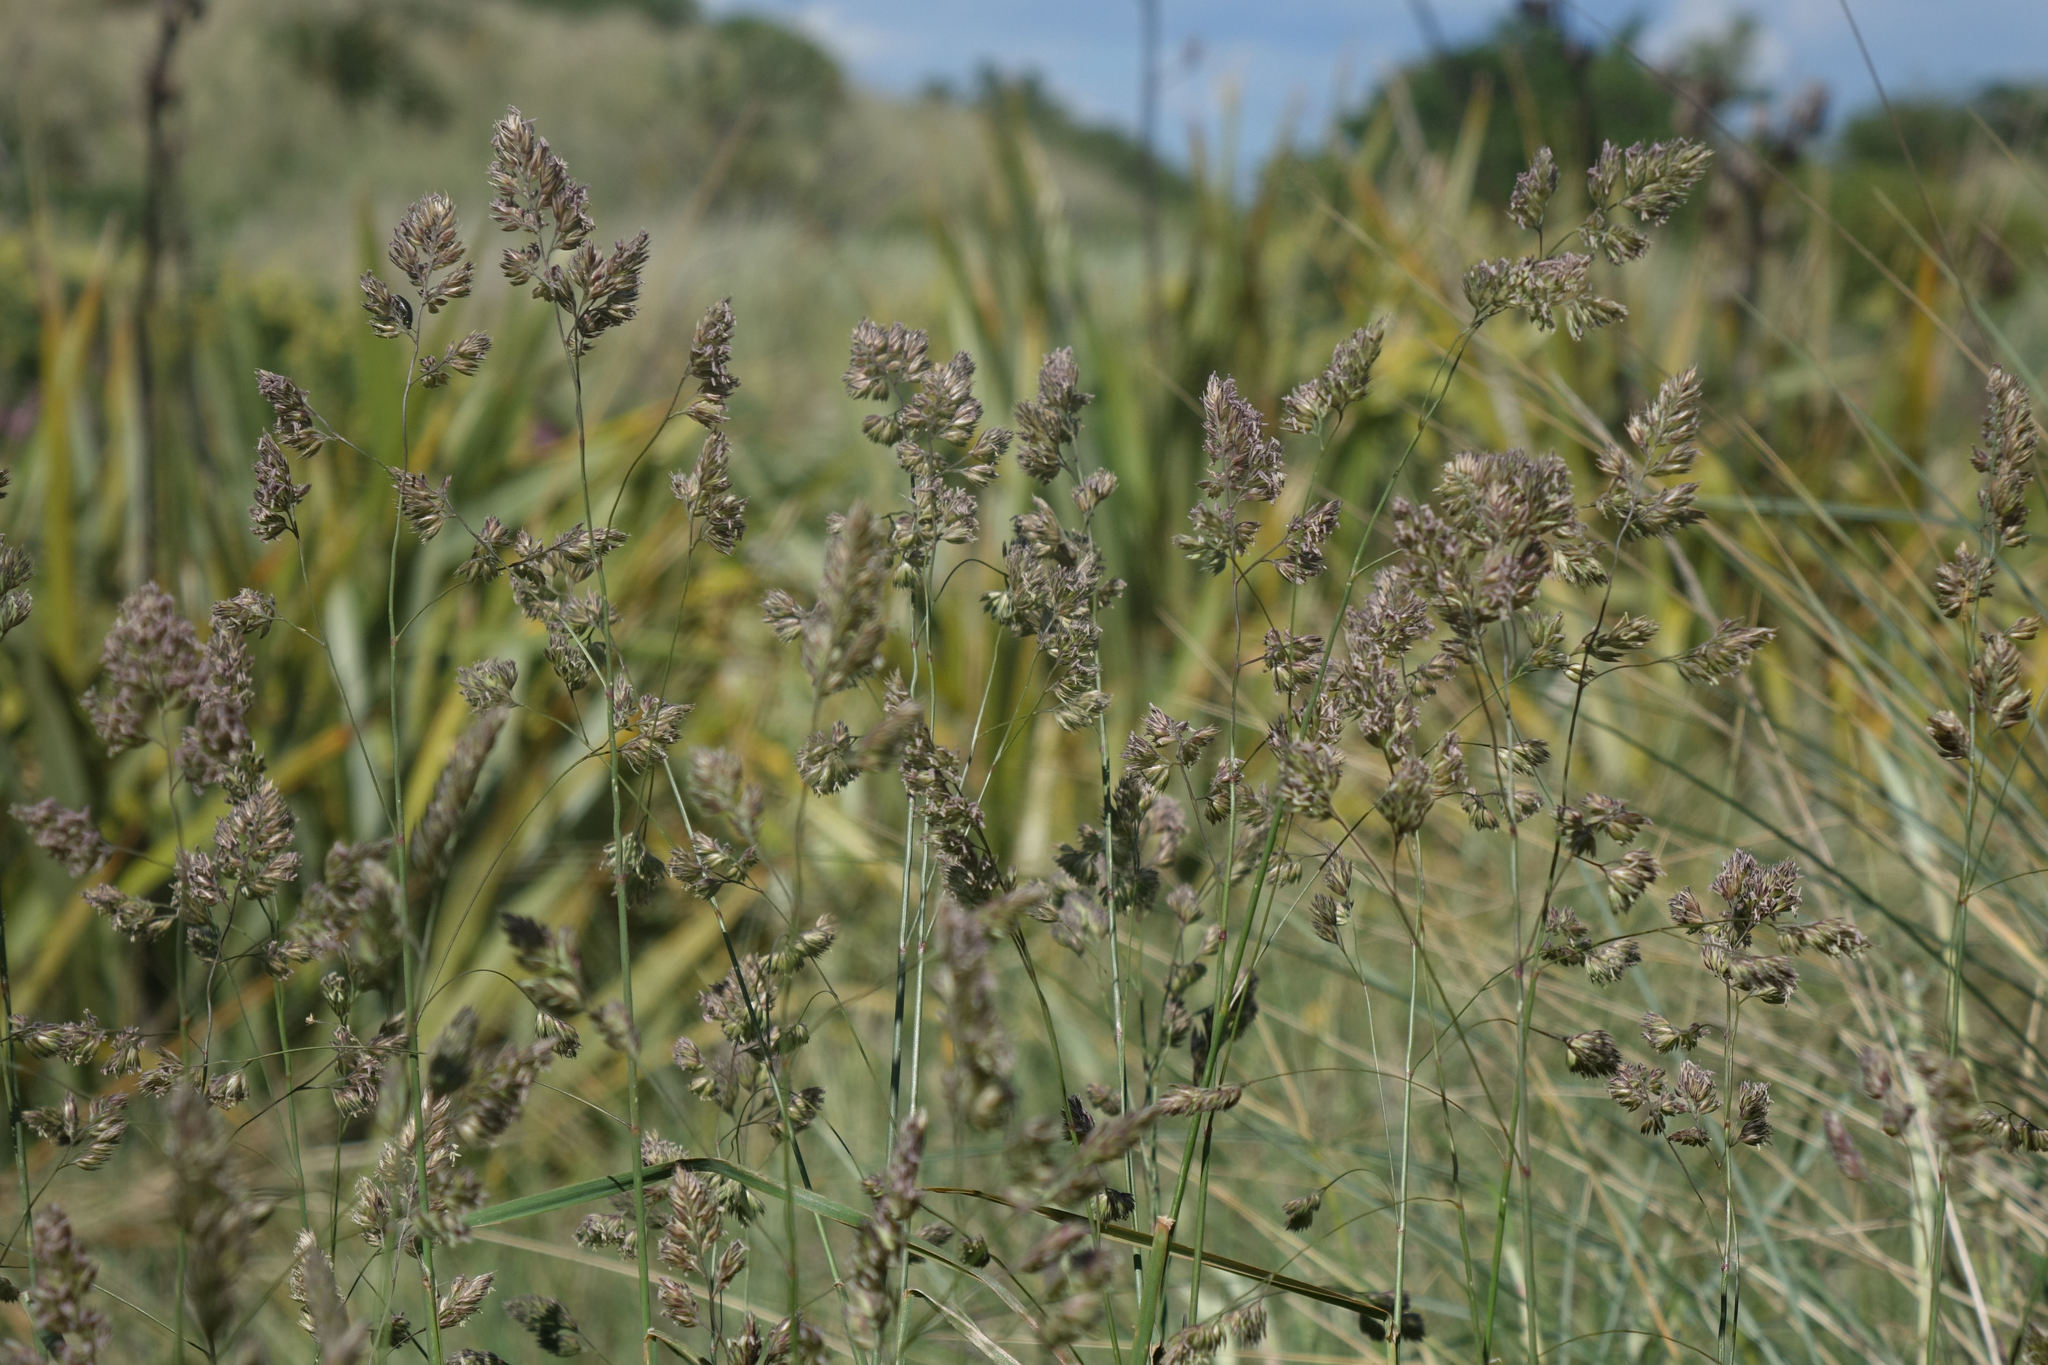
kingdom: Plantae
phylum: Tracheophyta
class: Liliopsida
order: Poales
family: Poaceae
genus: Dactylis
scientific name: Dactylis glomerata
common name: Orchardgrass
